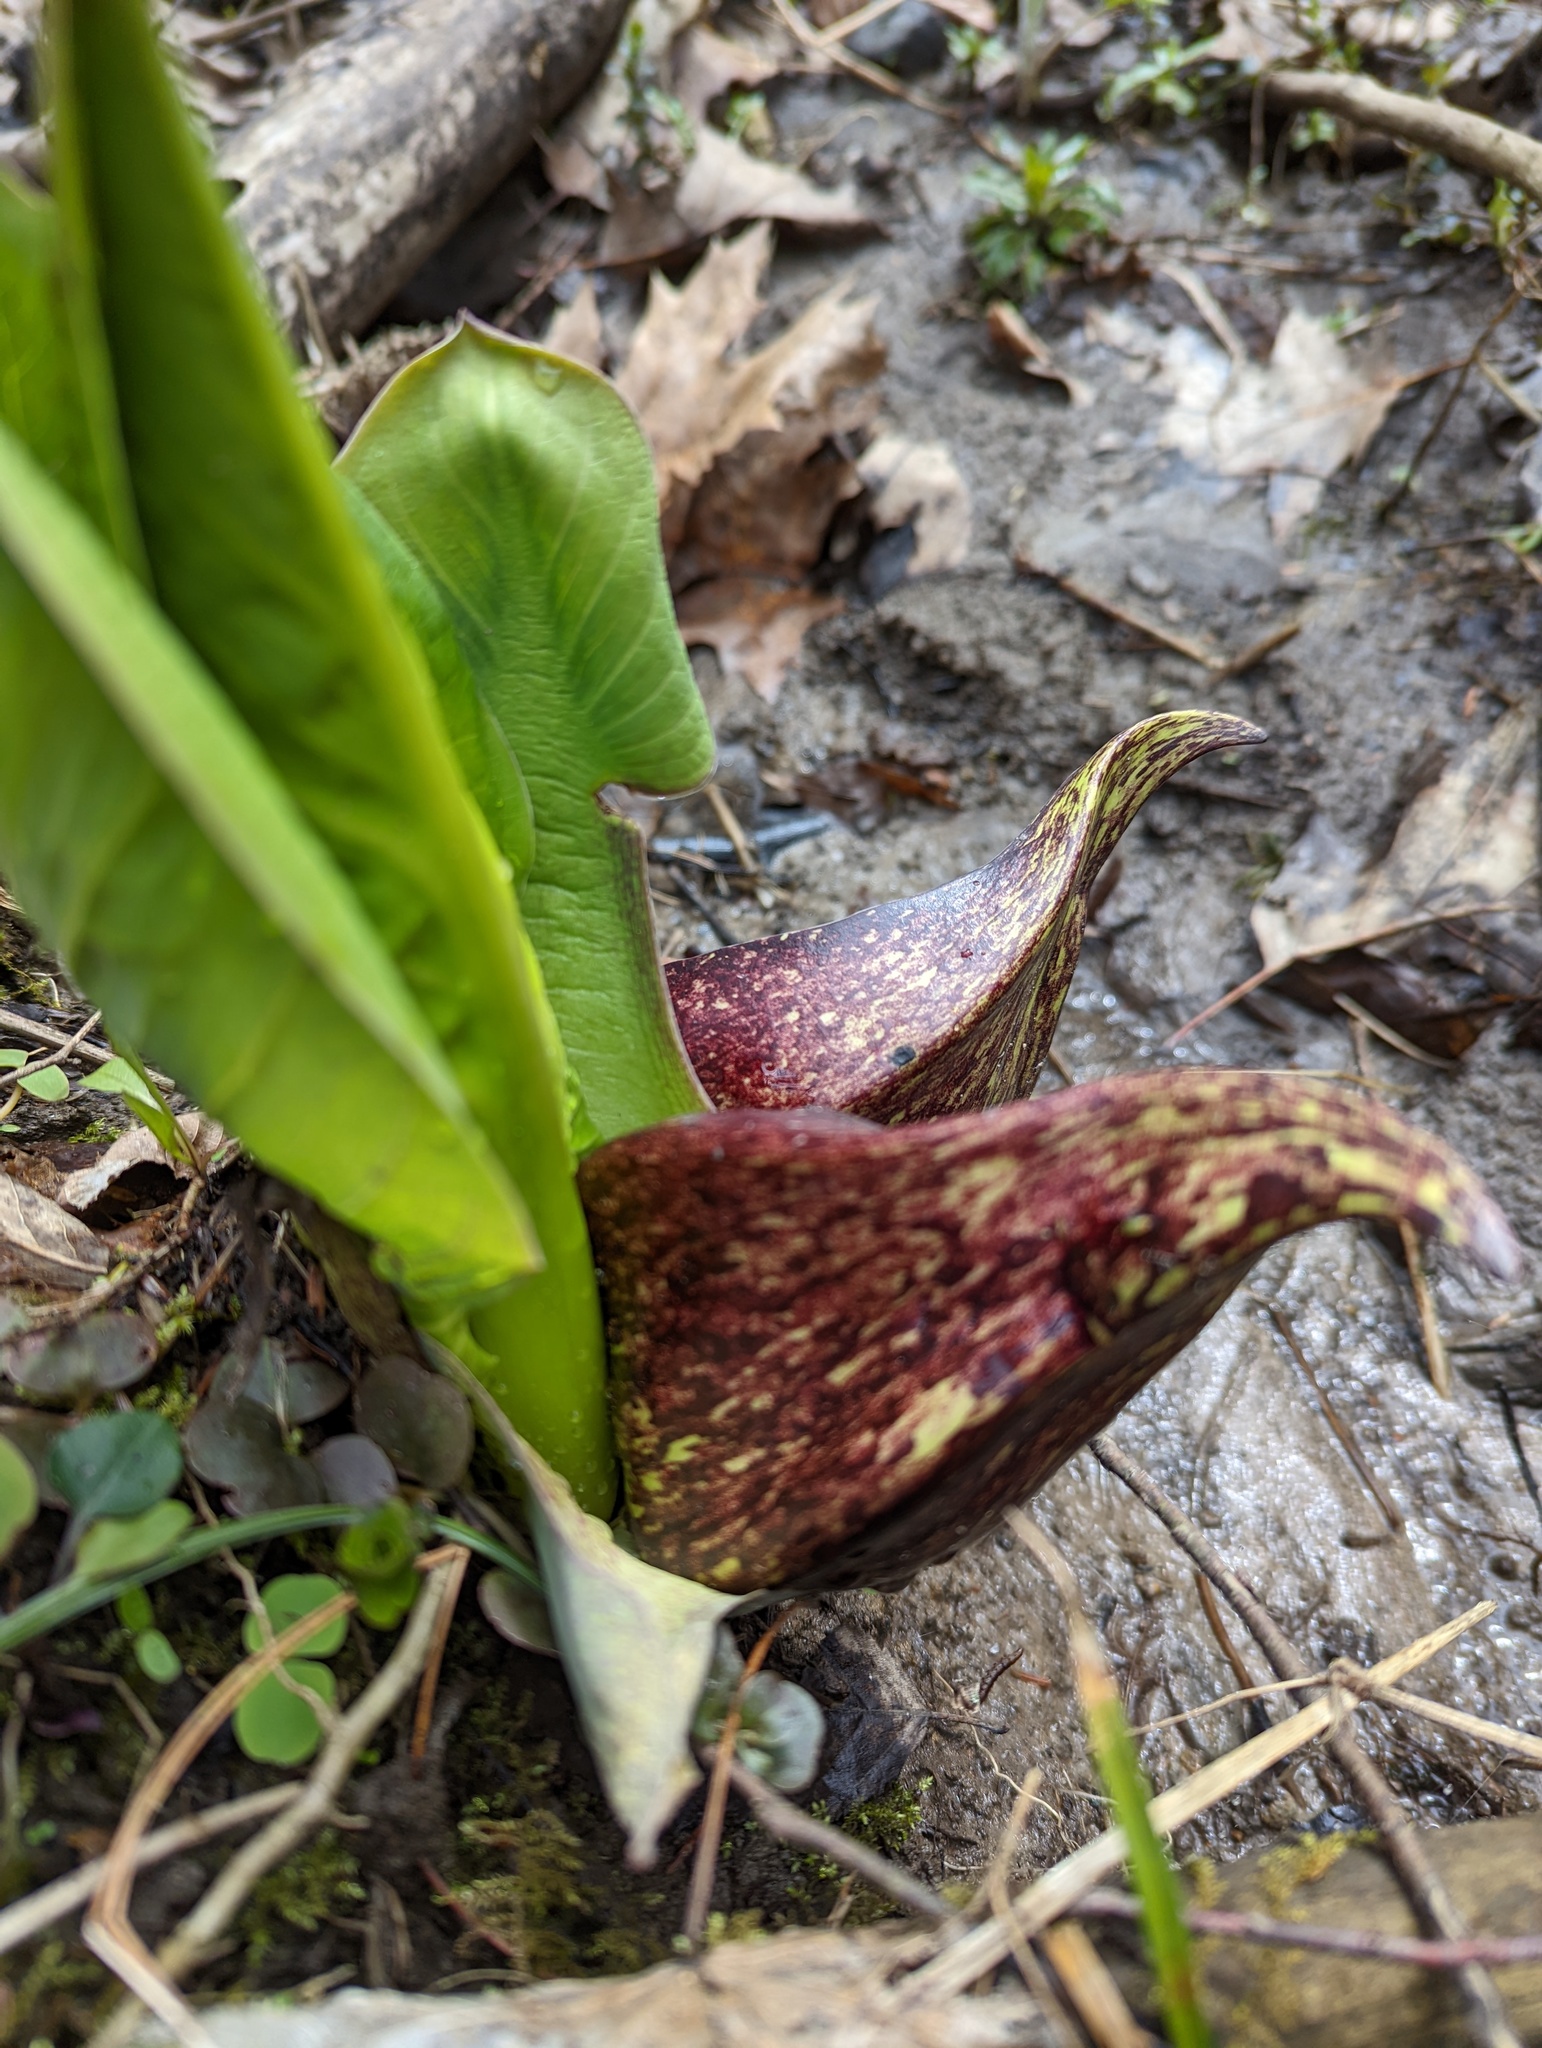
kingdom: Plantae
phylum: Tracheophyta
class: Liliopsida
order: Alismatales
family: Araceae
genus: Symplocarpus
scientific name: Symplocarpus foetidus
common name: Eastern skunk cabbage
